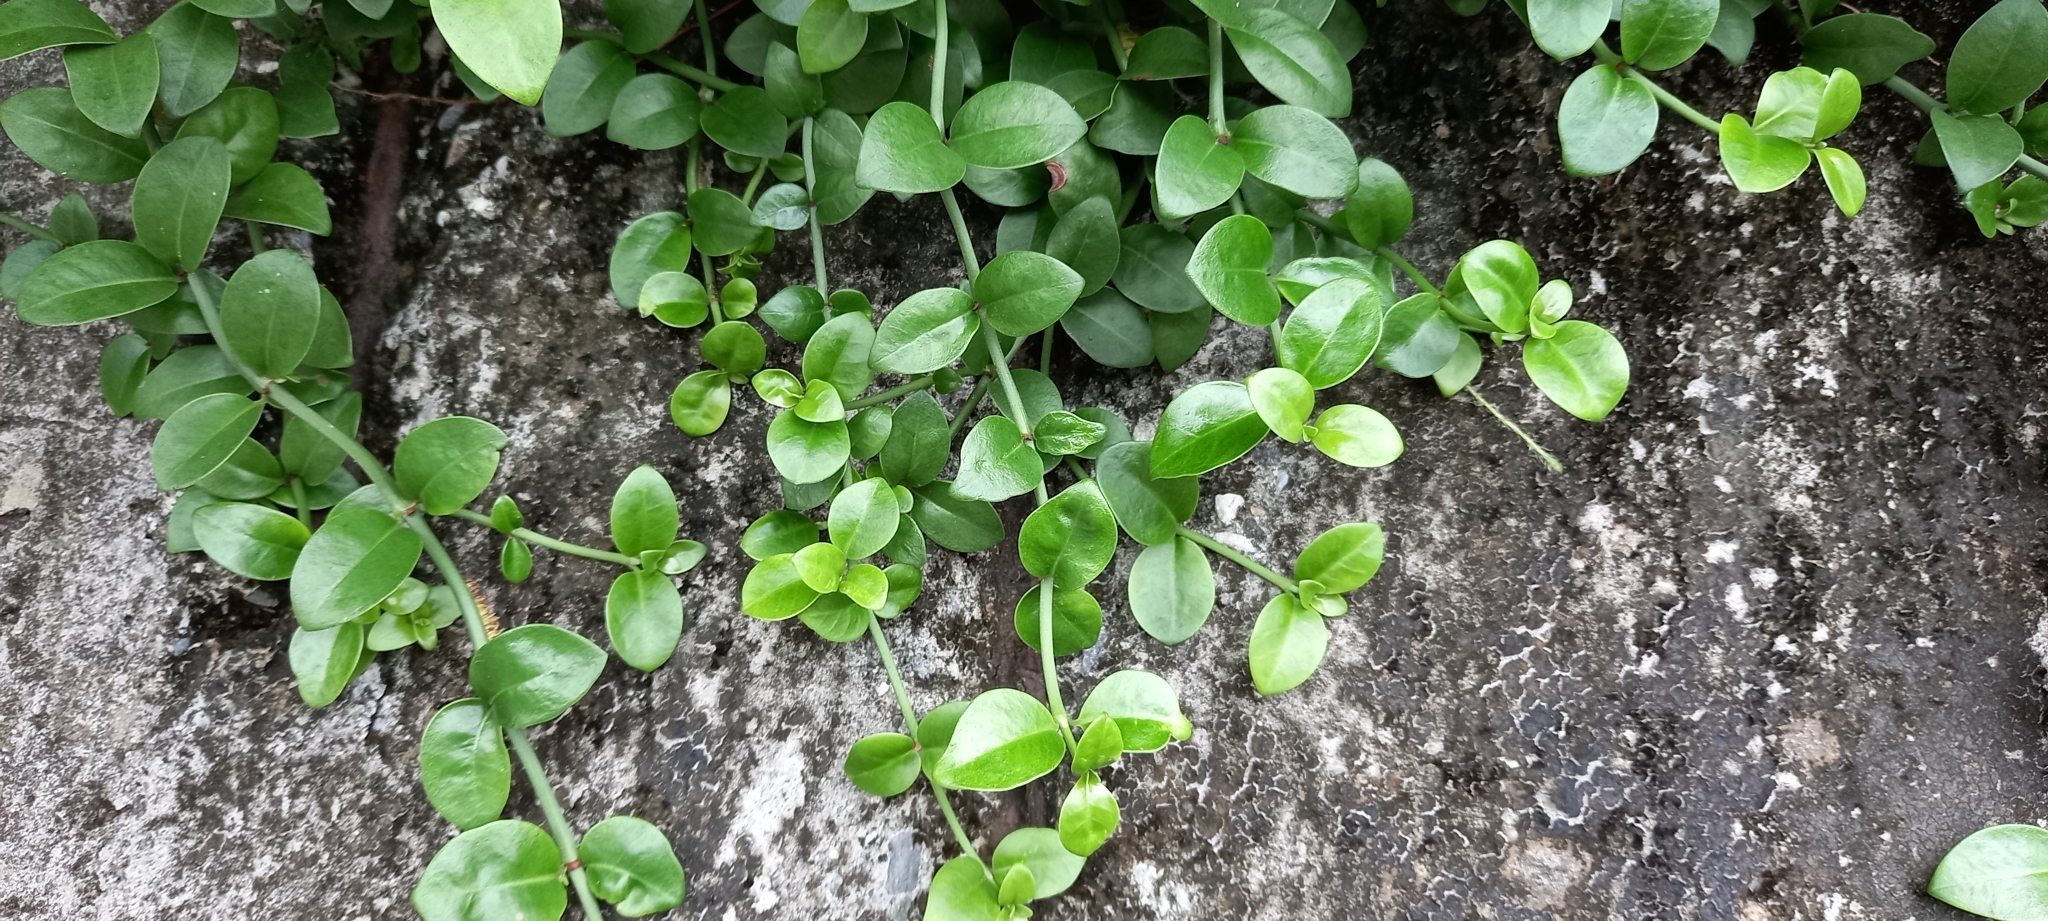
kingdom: Plantae
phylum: Tracheophyta
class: Magnoliopsida
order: Gentianales
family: Rubiaceae
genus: Psychotria
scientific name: Psychotria serpens
